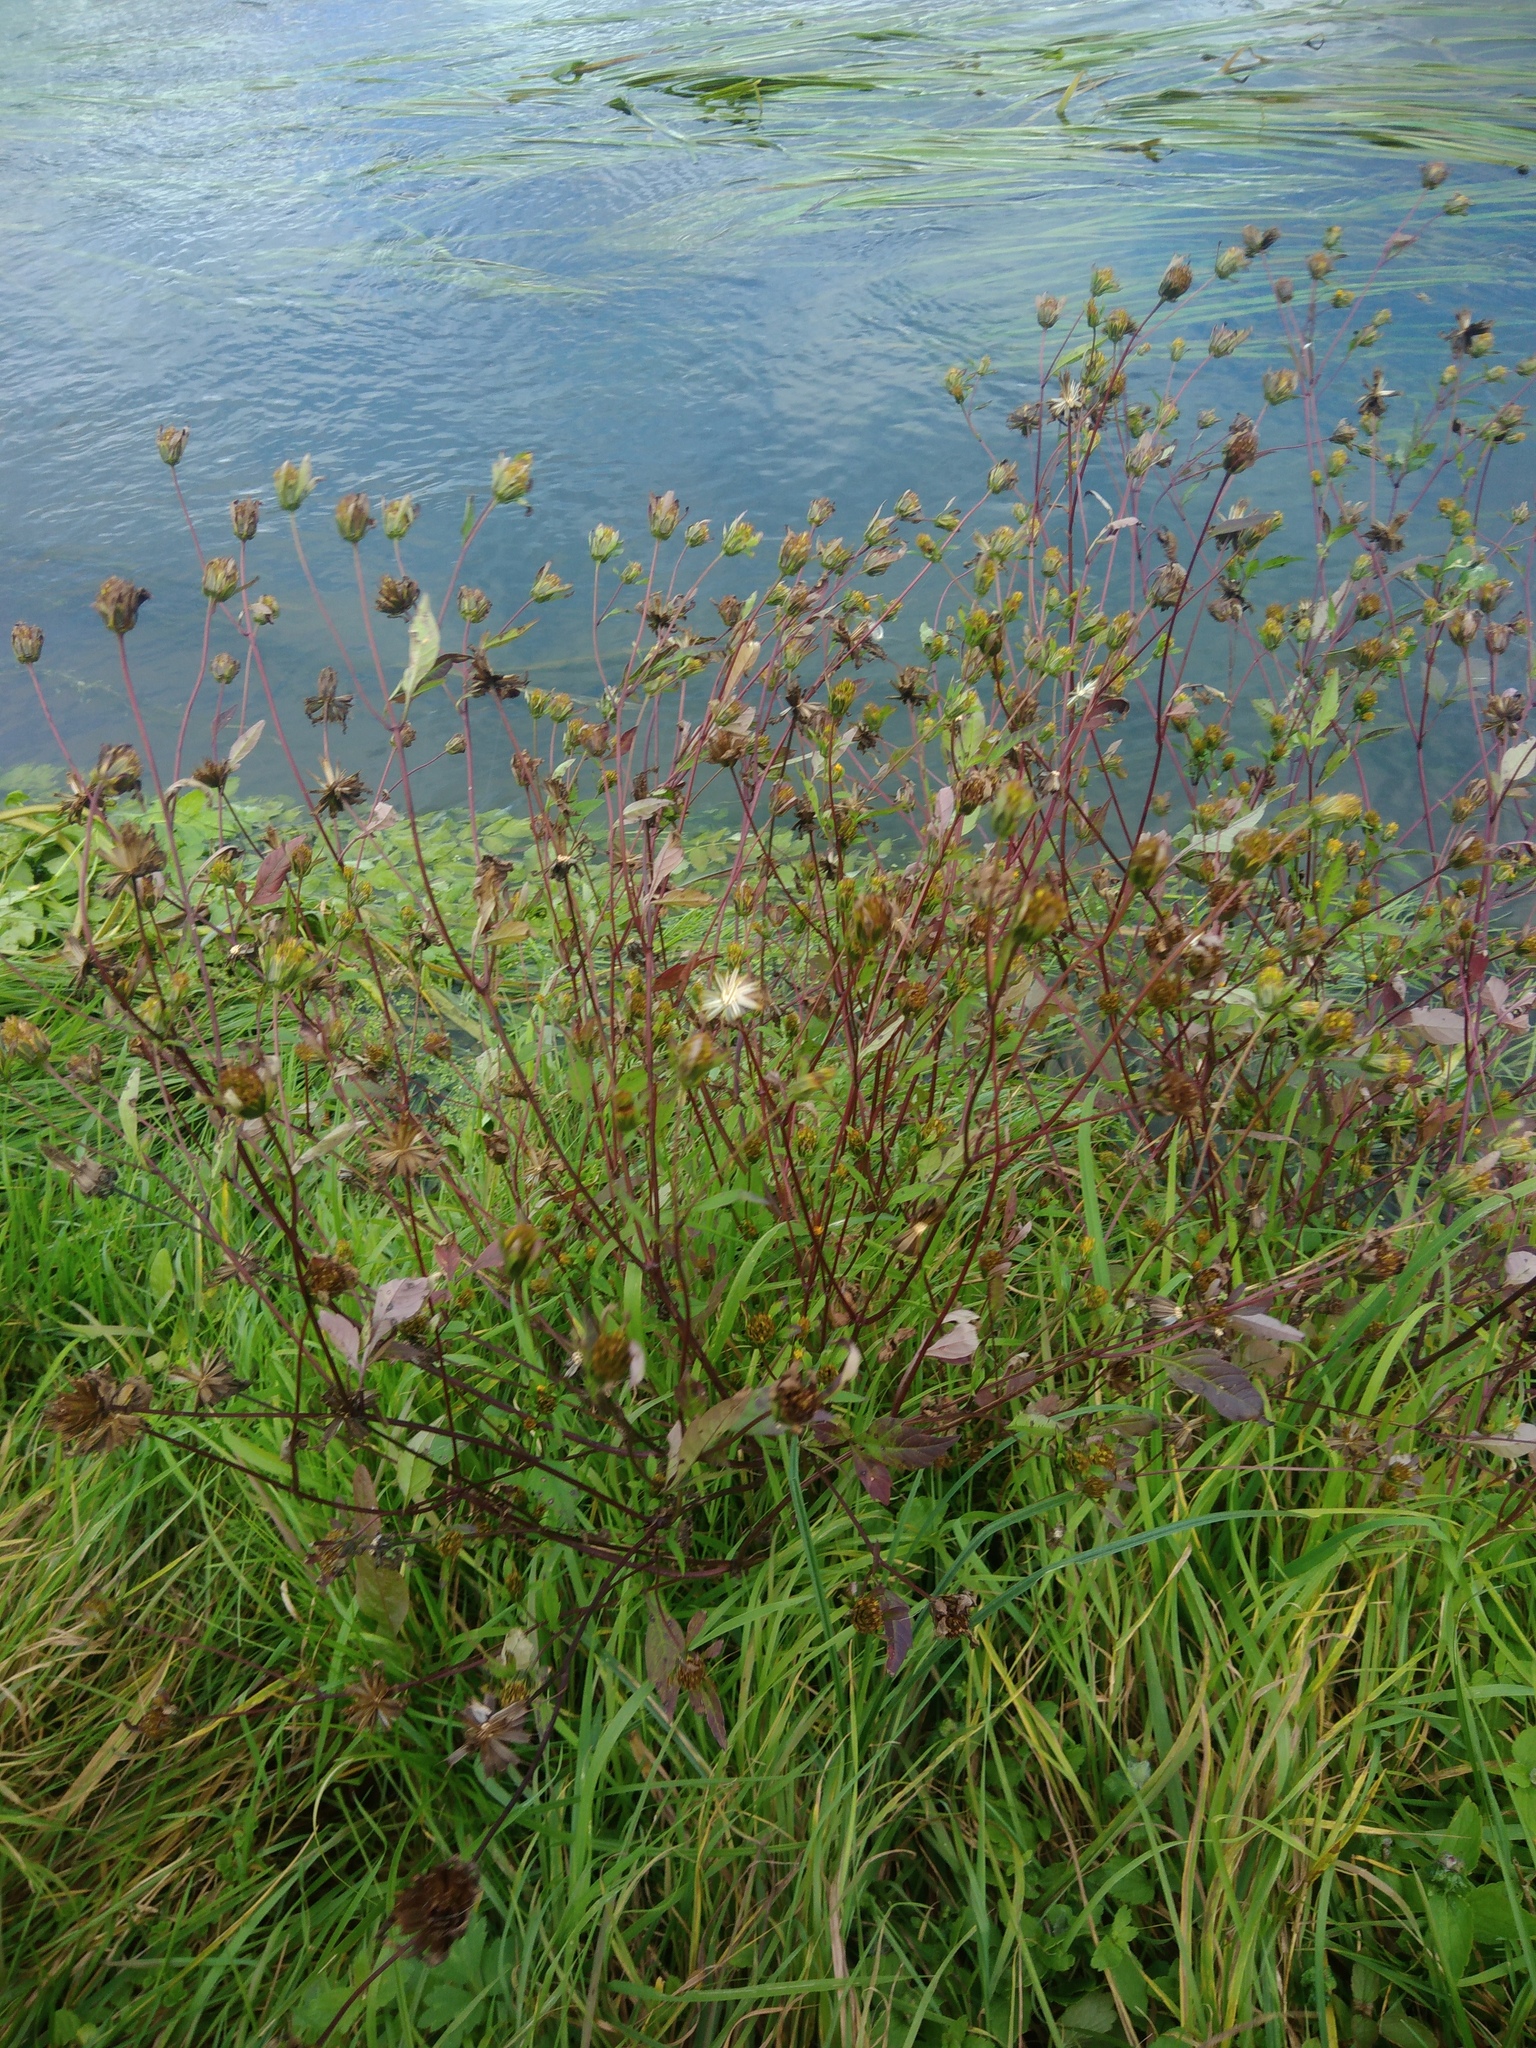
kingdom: Plantae
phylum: Tracheophyta
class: Magnoliopsida
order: Asterales
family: Asteraceae
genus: Bidens
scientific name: Bidens frondosa
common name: Beggarticks
